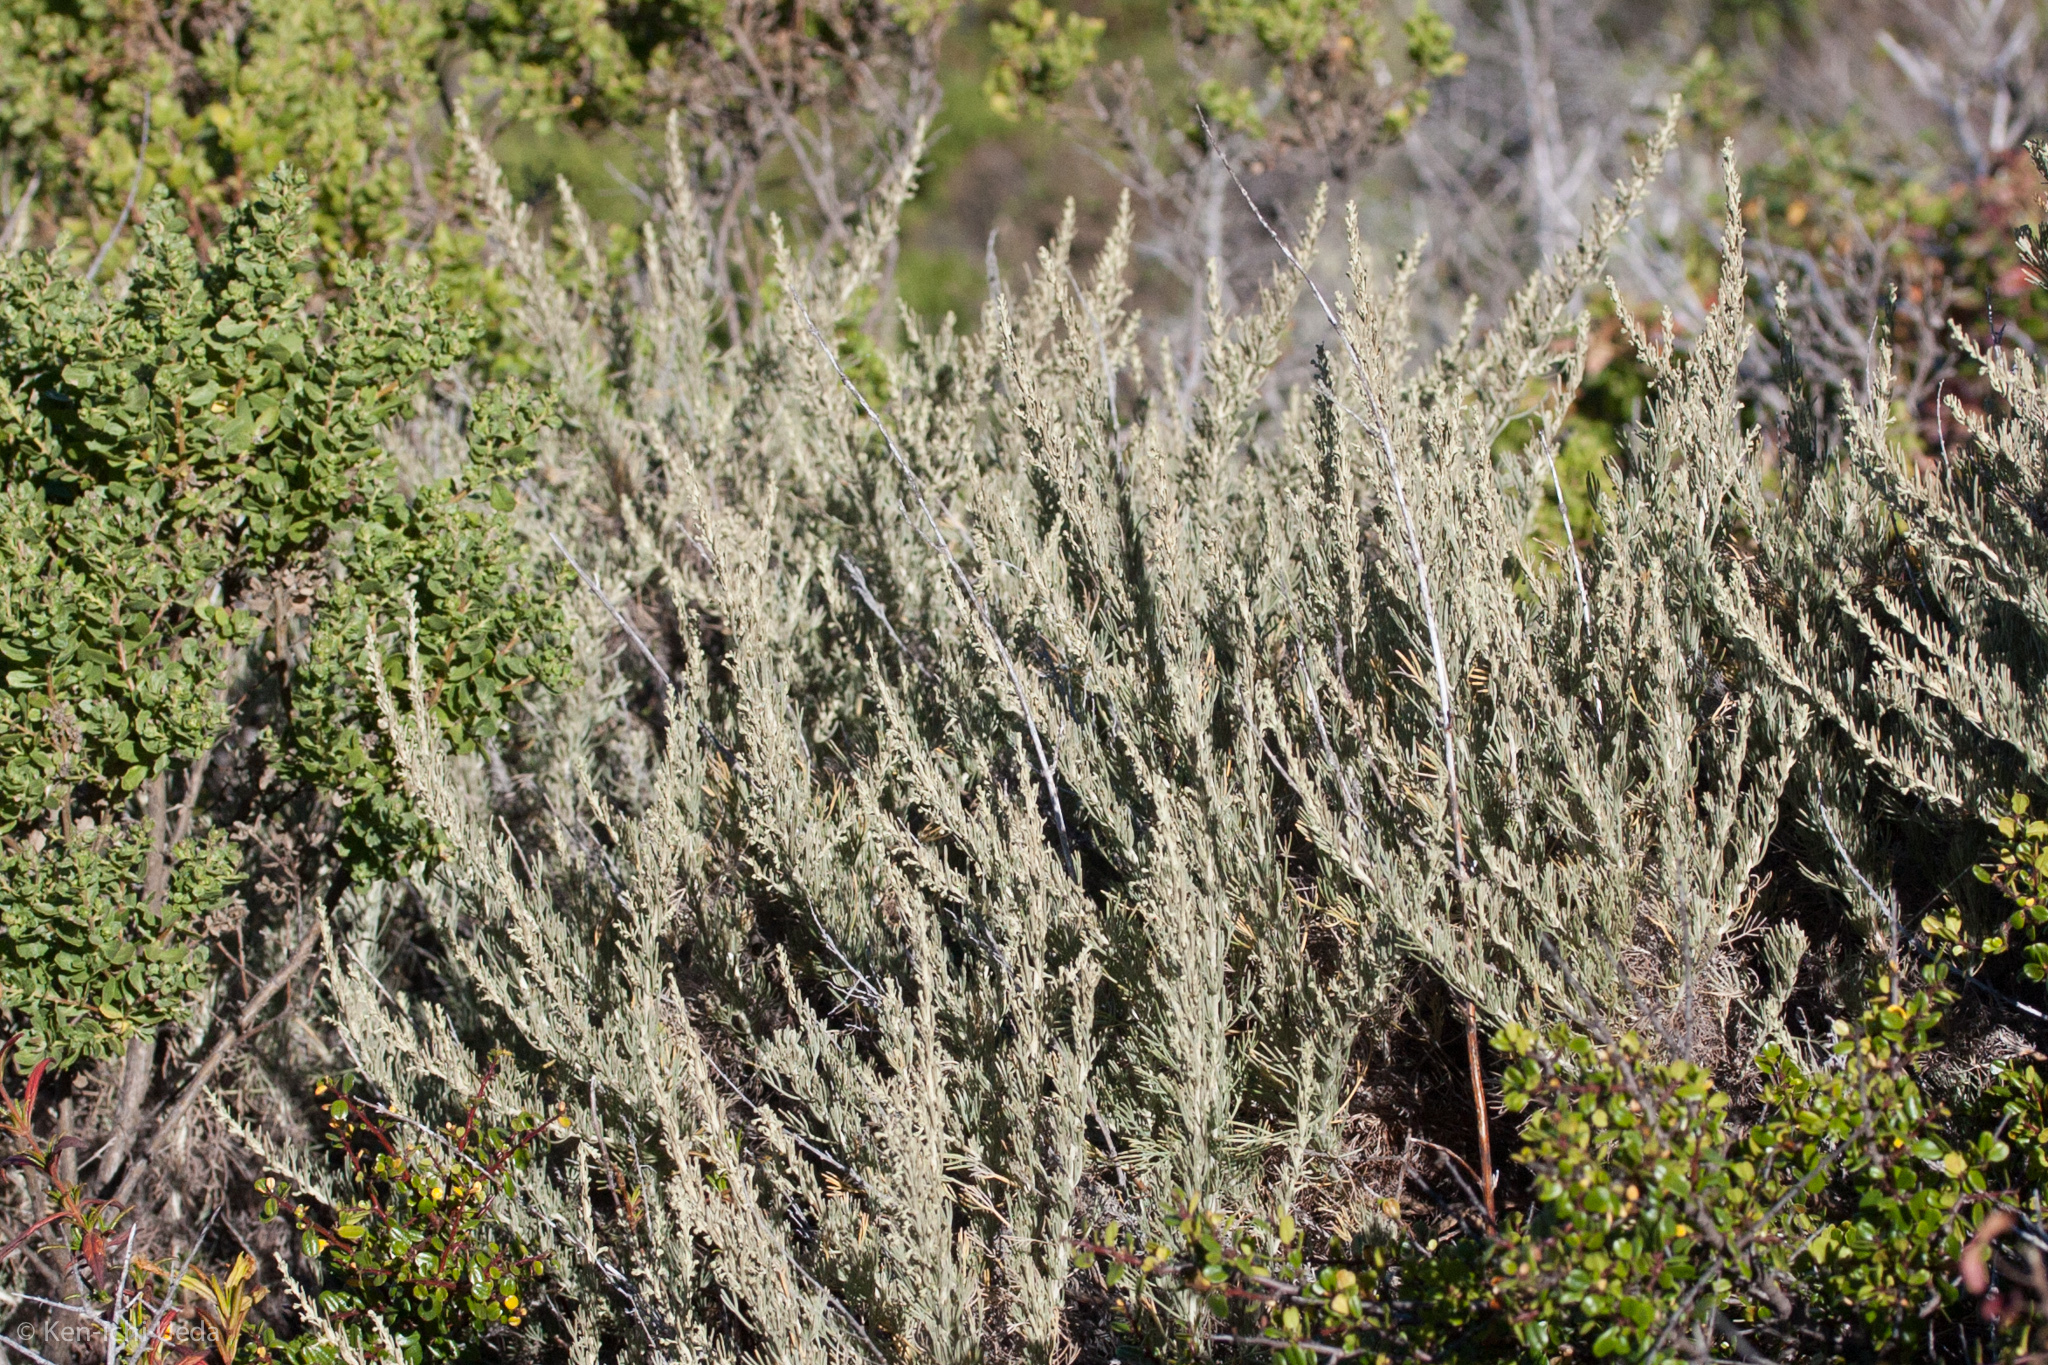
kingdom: Plantae
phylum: Tracheophyta
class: Magnoliopsida
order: Asterales
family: Asteraceae
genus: Artemisia
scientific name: Artemisia californica
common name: California sagebrush
